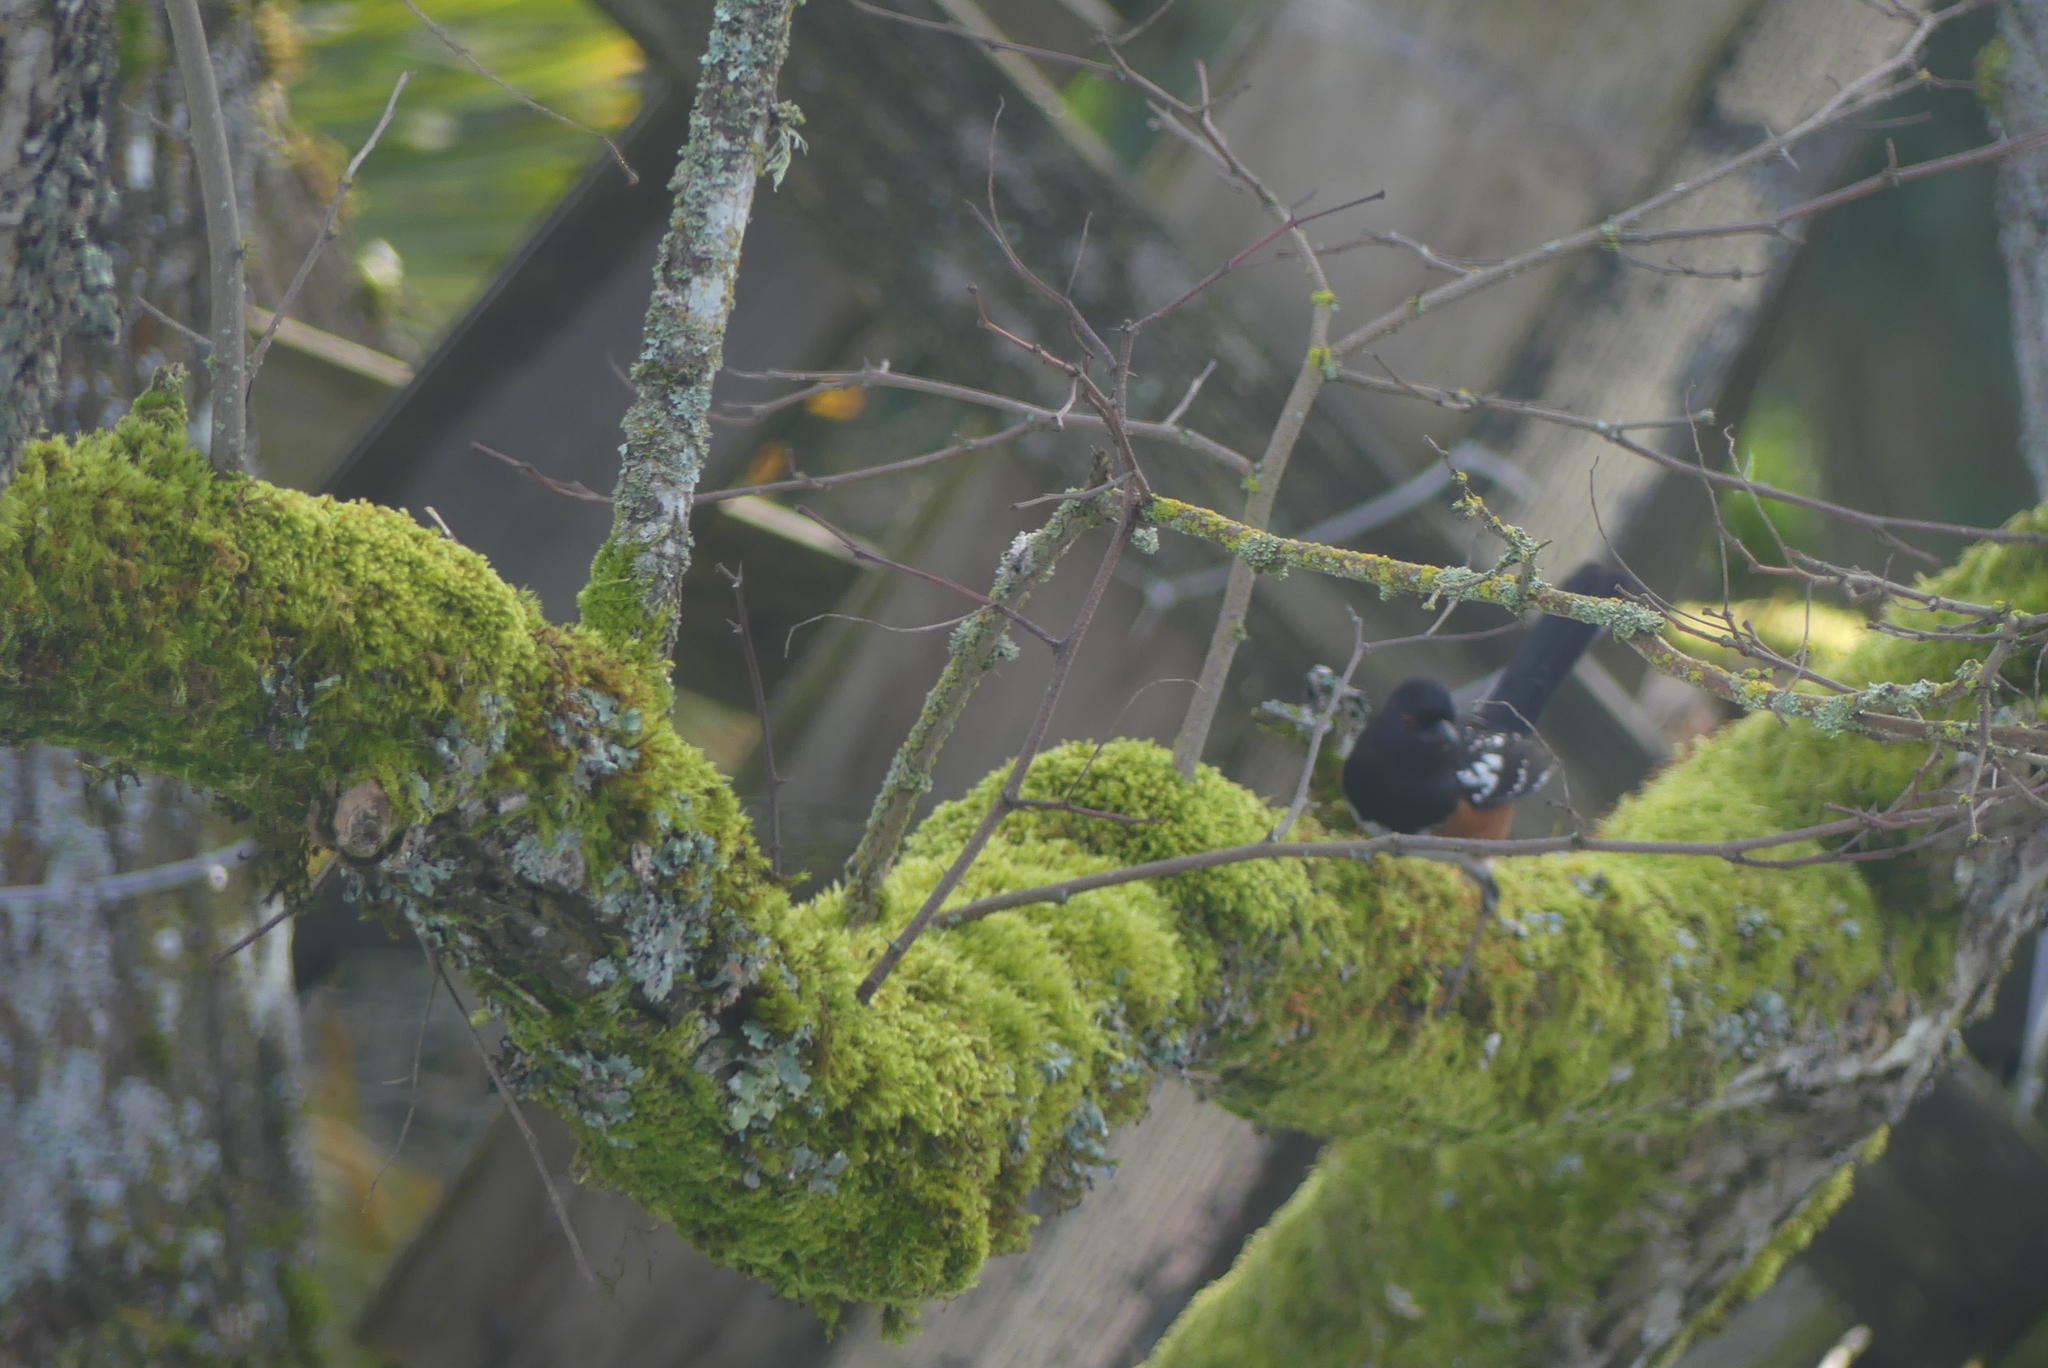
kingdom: Animalia
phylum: Chordata
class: Aves
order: Passeriformes
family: Passerellidae
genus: Pipilo
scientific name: Pipilo maculatus
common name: Spotted towhee
